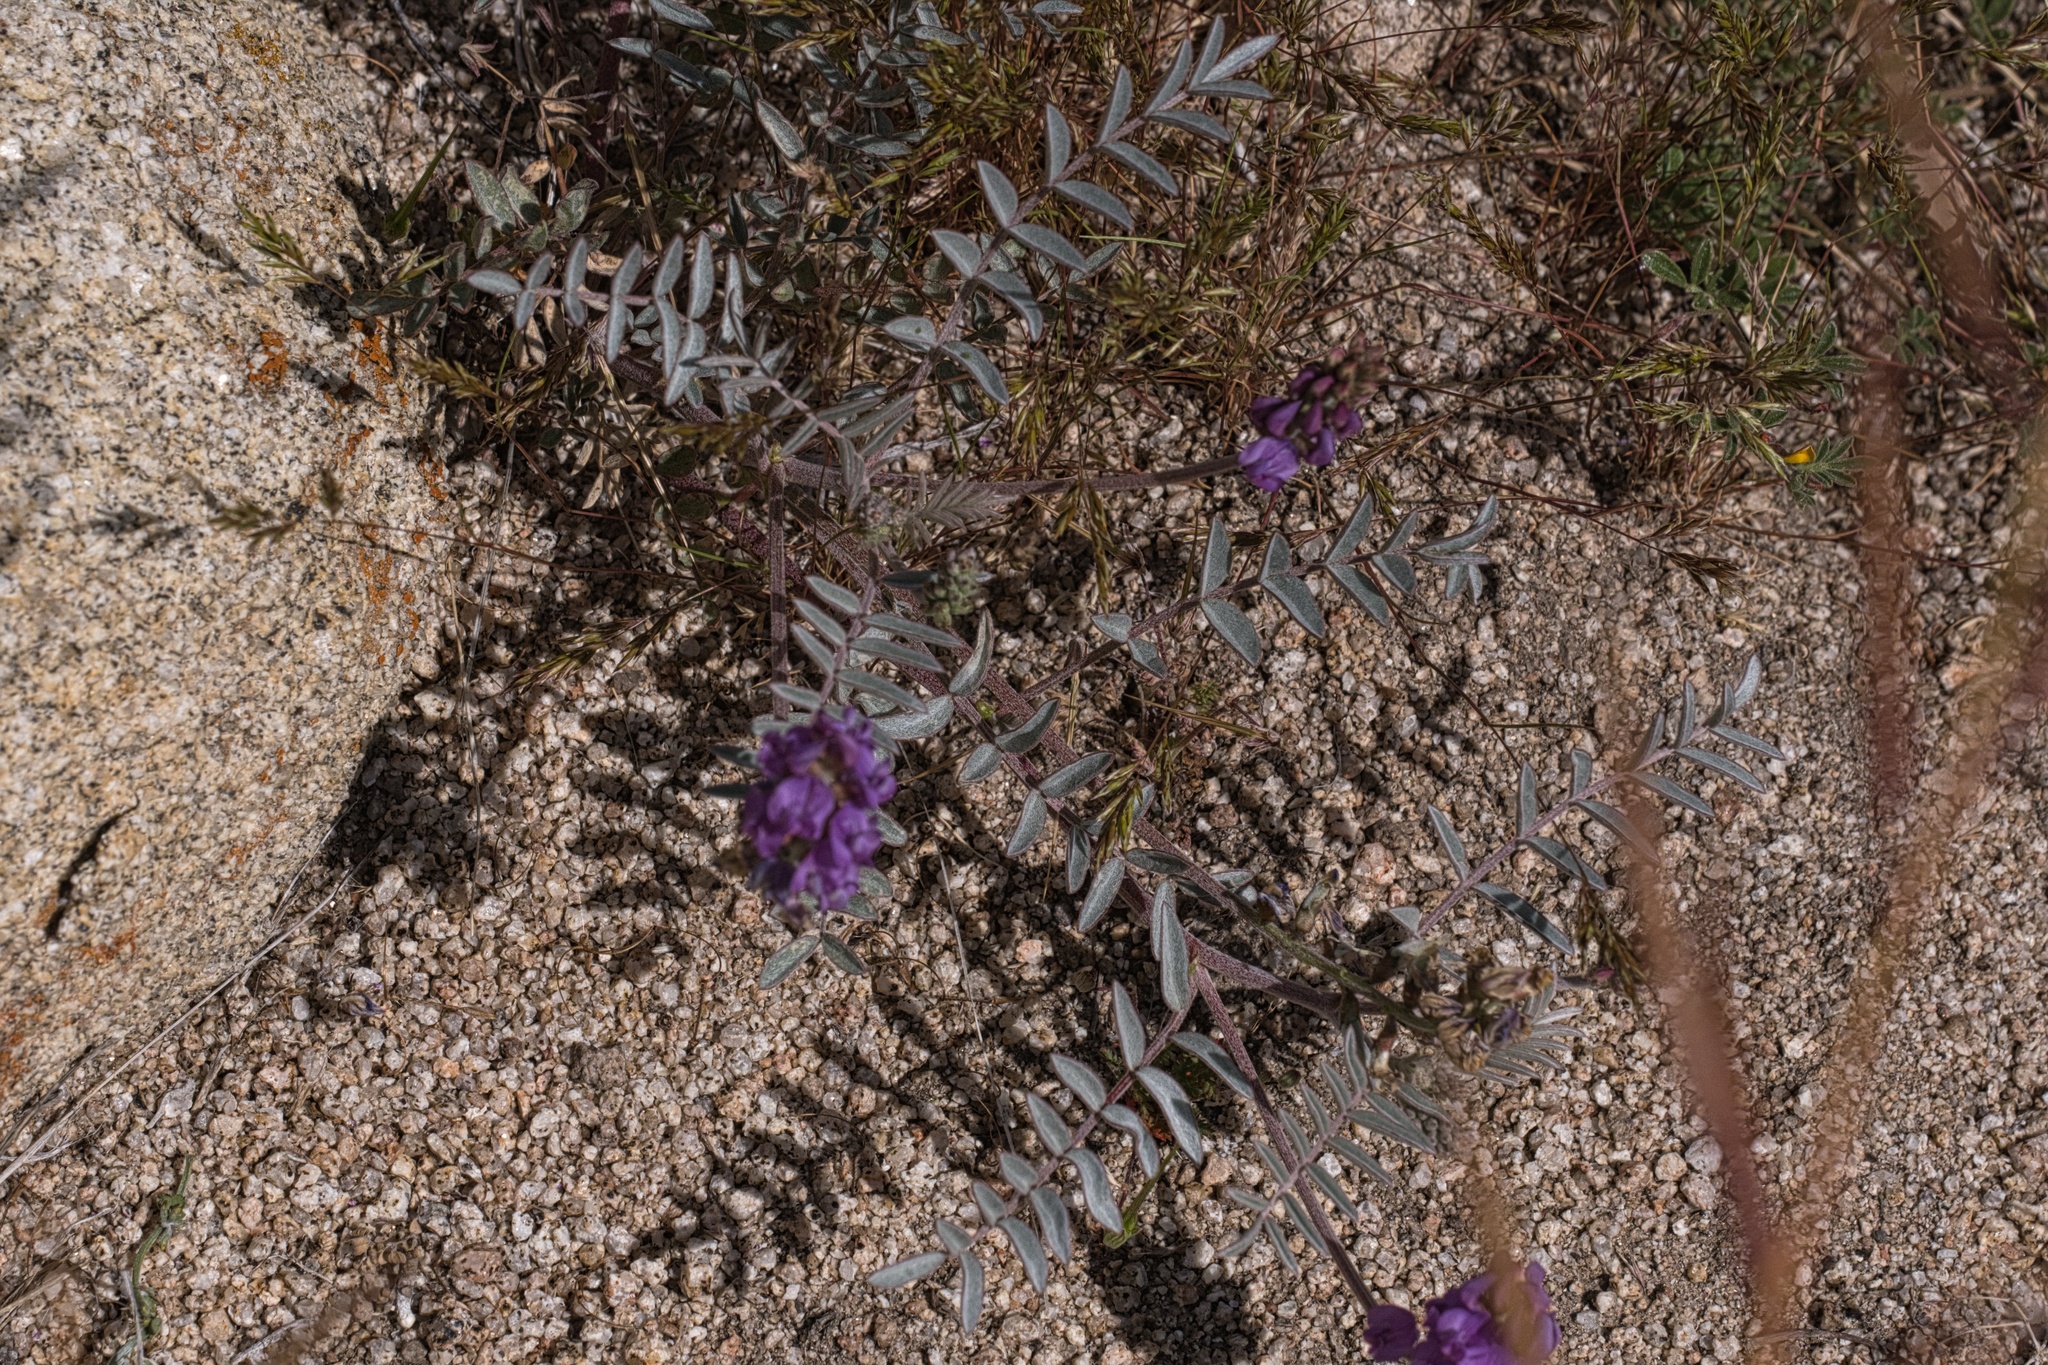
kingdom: Plantae
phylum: Tracheophyta
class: Magnoliopsida
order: Fabales
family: Fabaceae
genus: Astragalus
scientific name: Astragalus palmeri
